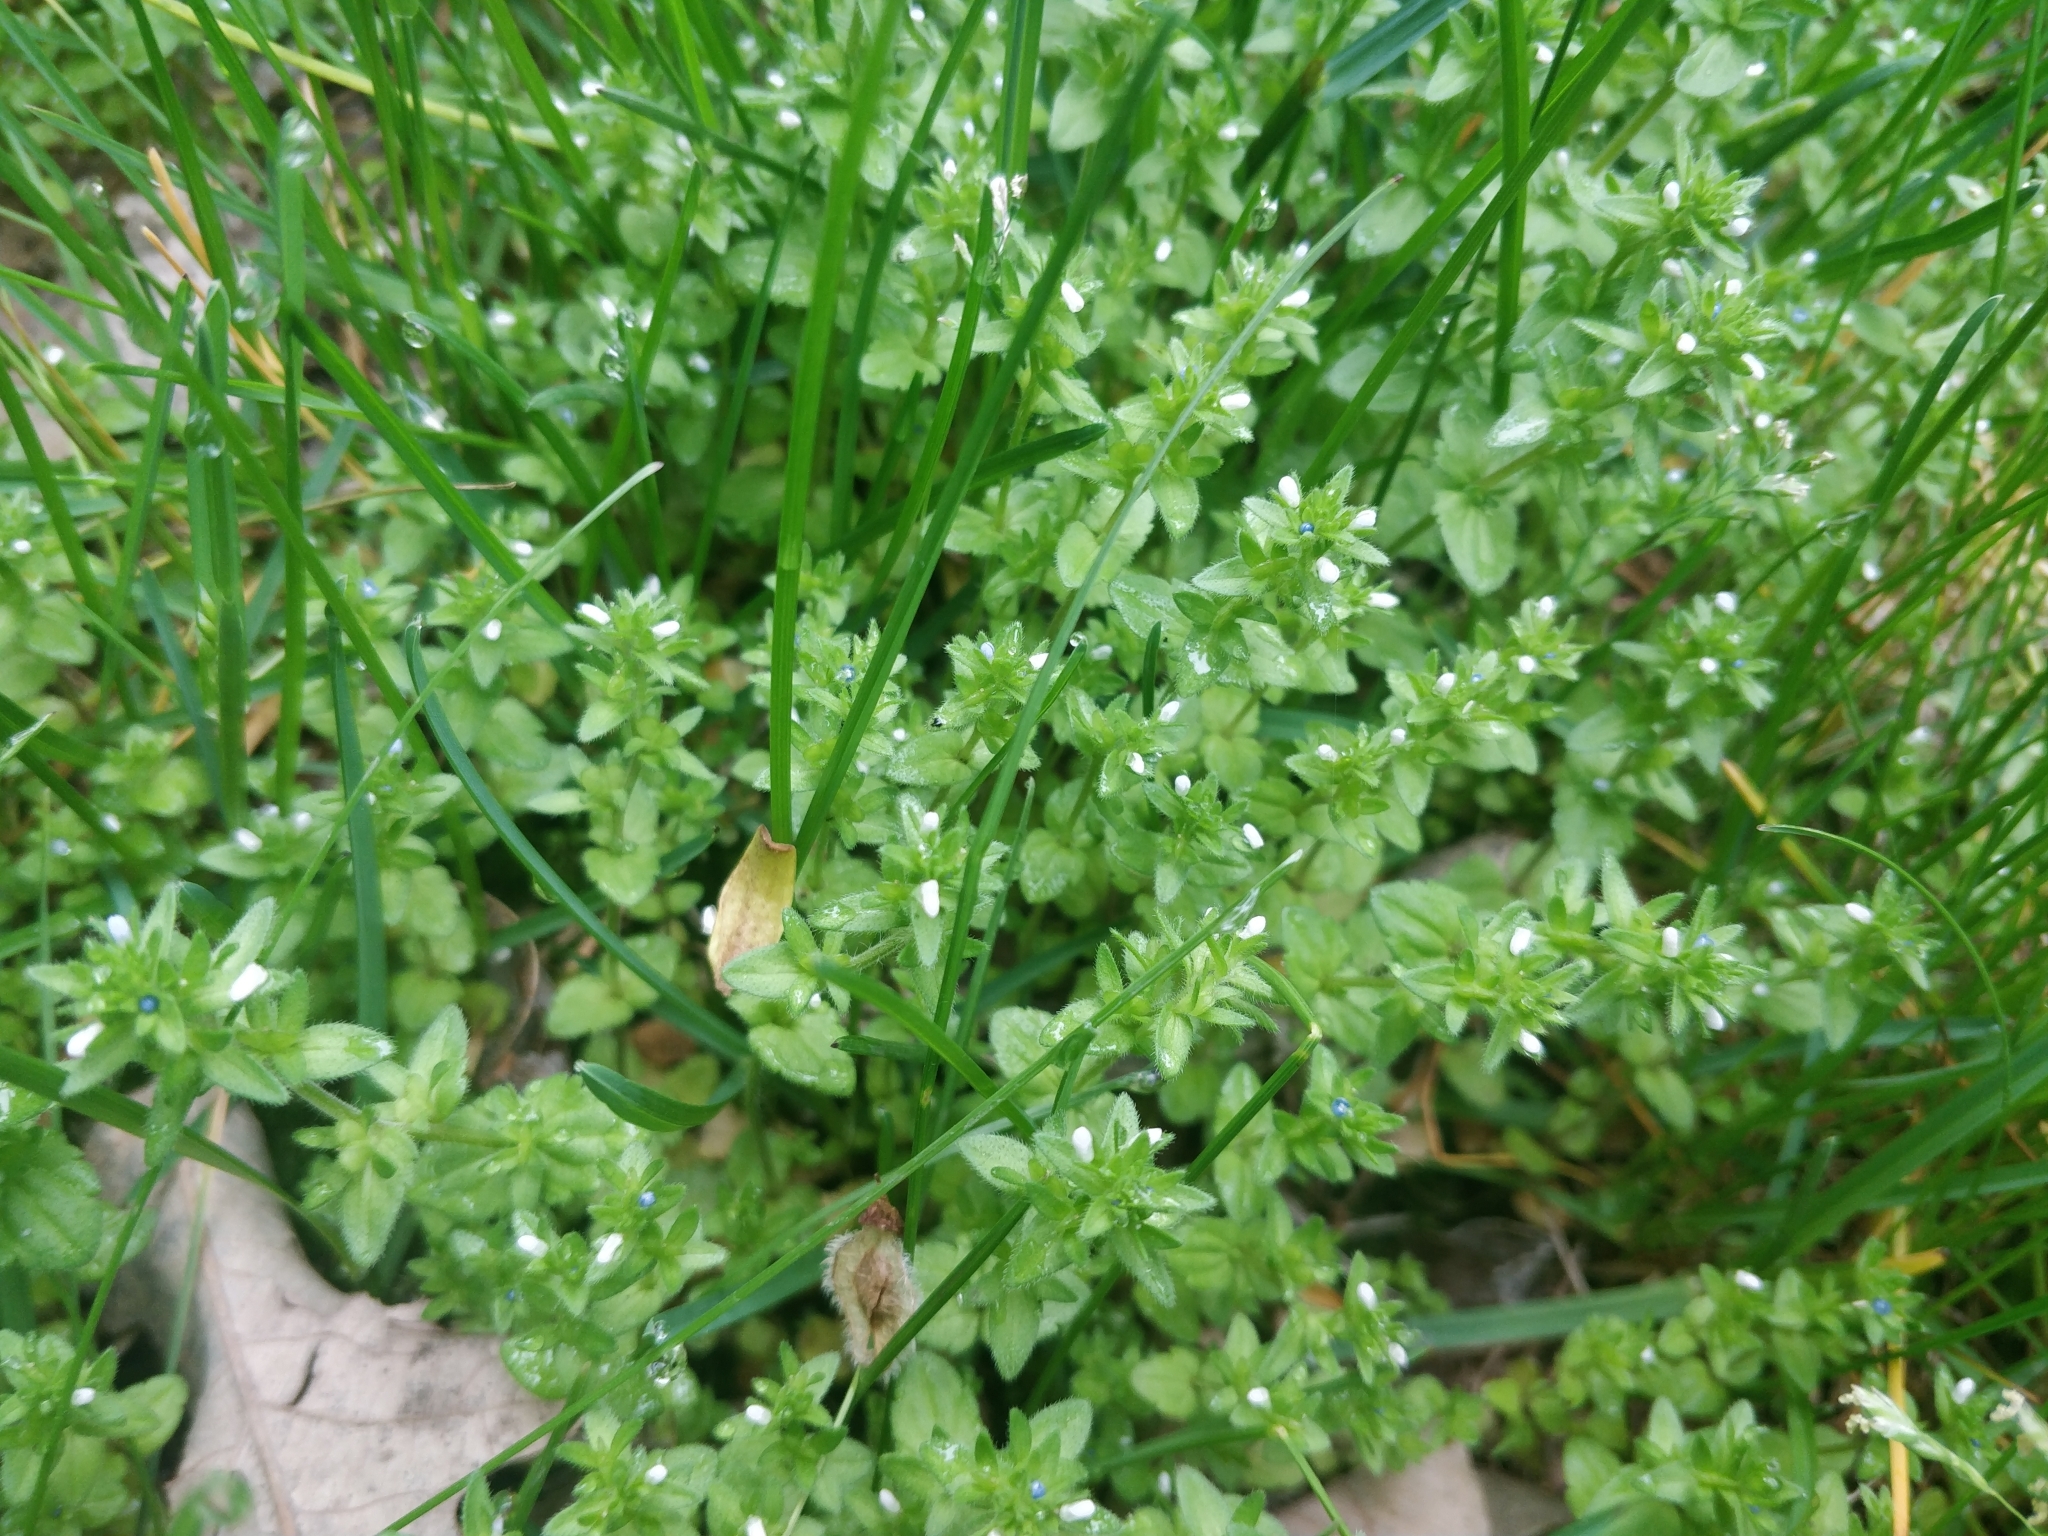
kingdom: Plantae
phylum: Tracheophyta
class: Magnoliopsida
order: Lamiales
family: Plantaginaceae
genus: Veronica
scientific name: Veronica arvensis
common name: Corn speedwell
